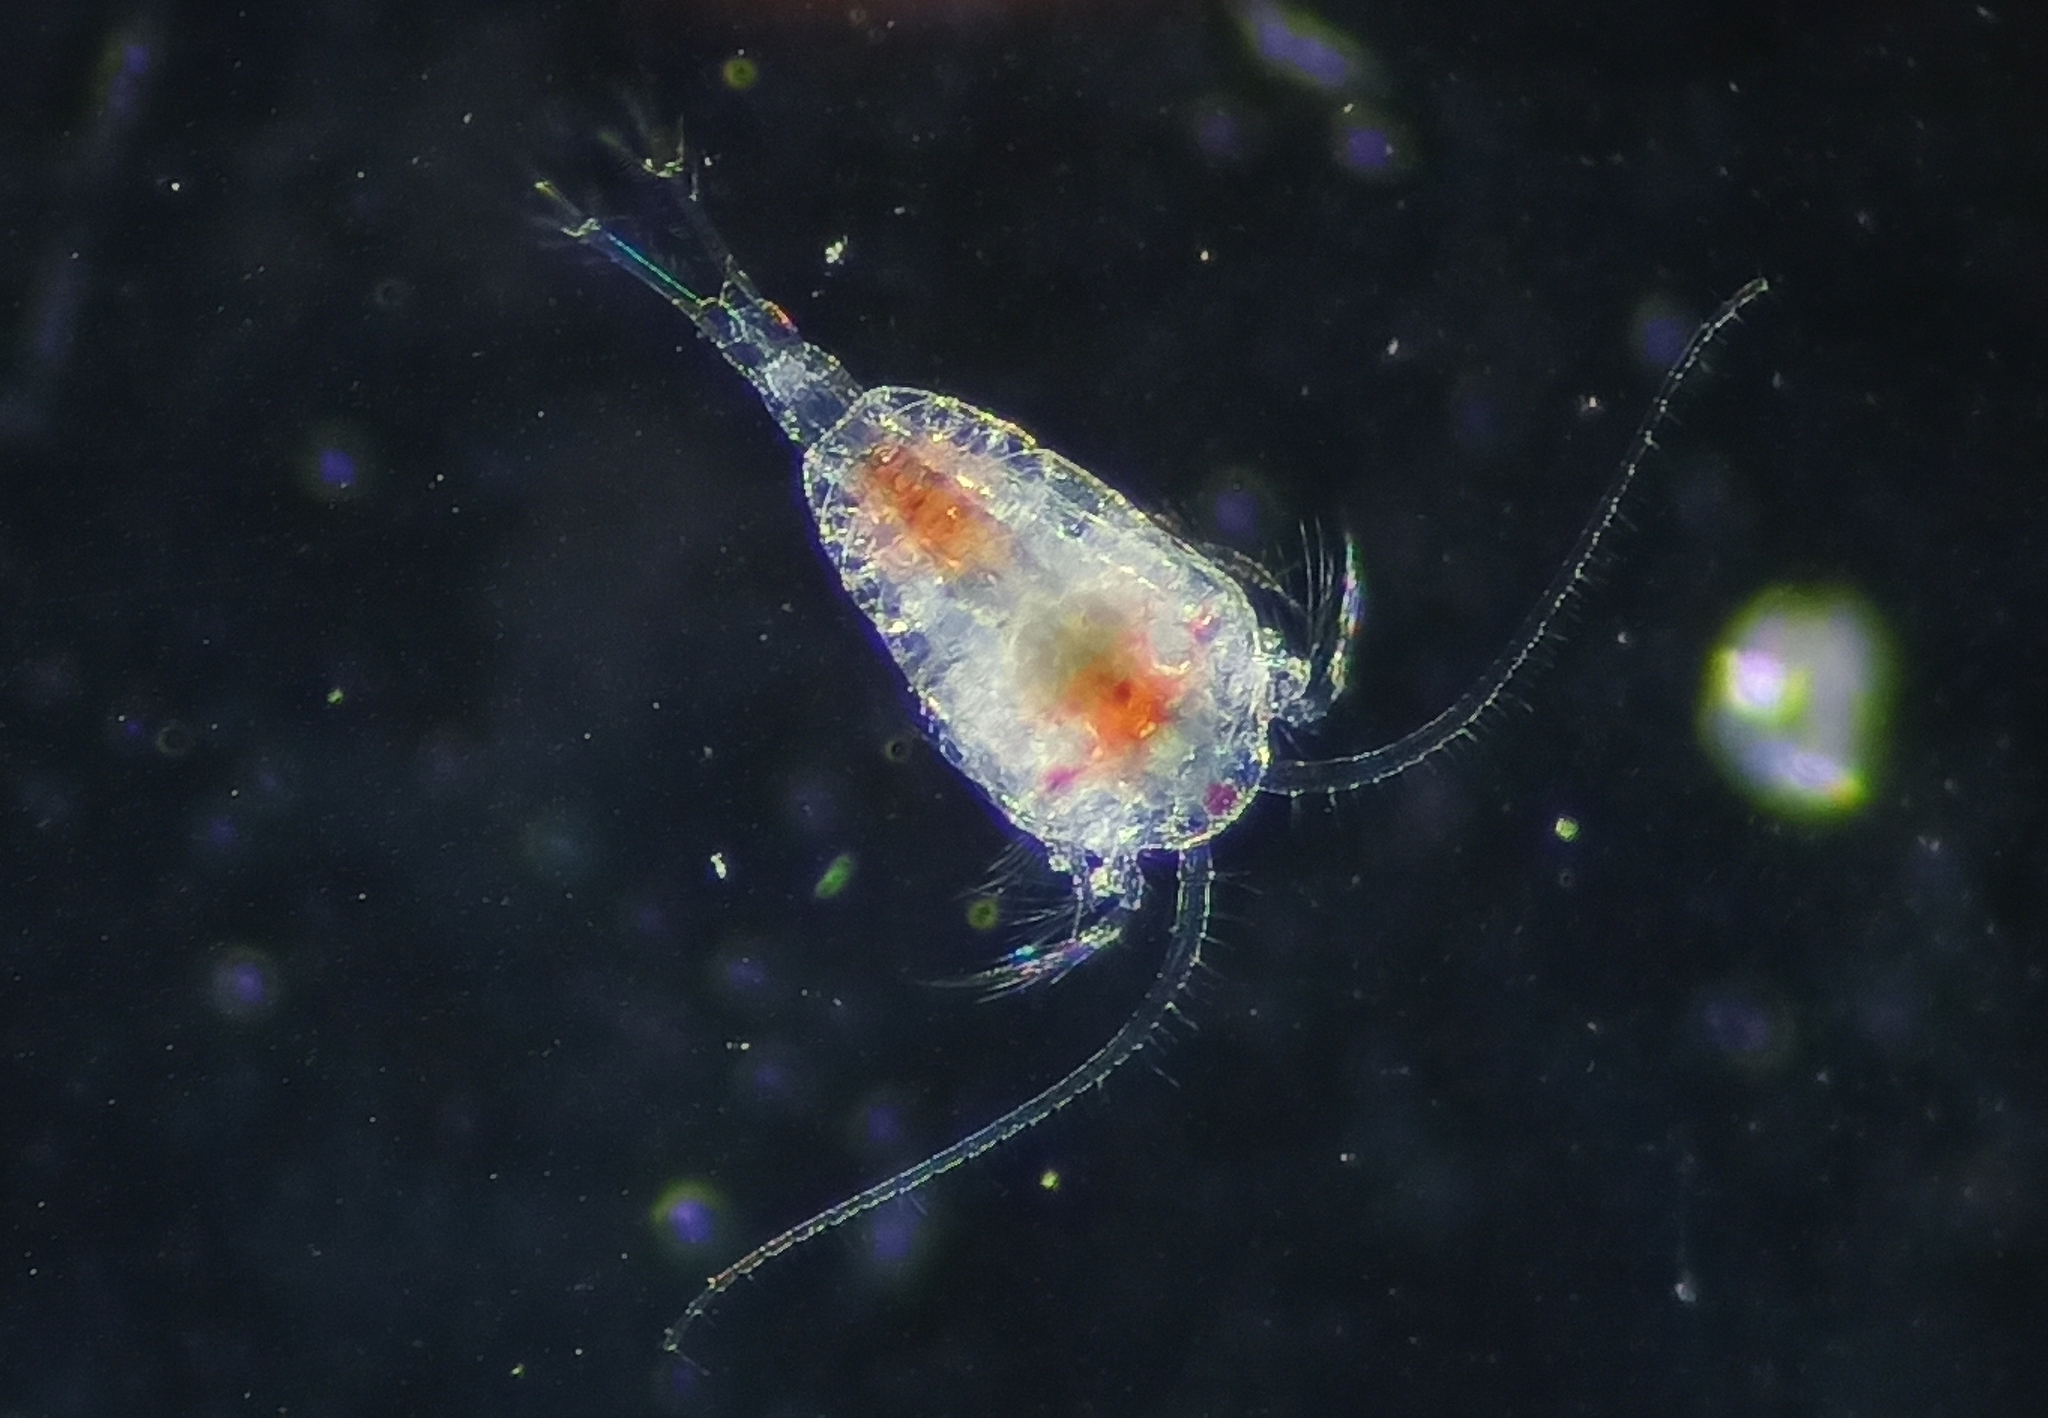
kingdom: Animalia
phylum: Arthropoda
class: Copepoda
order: Calanoida
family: Temoridae
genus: Temora
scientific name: Temora turbinata
